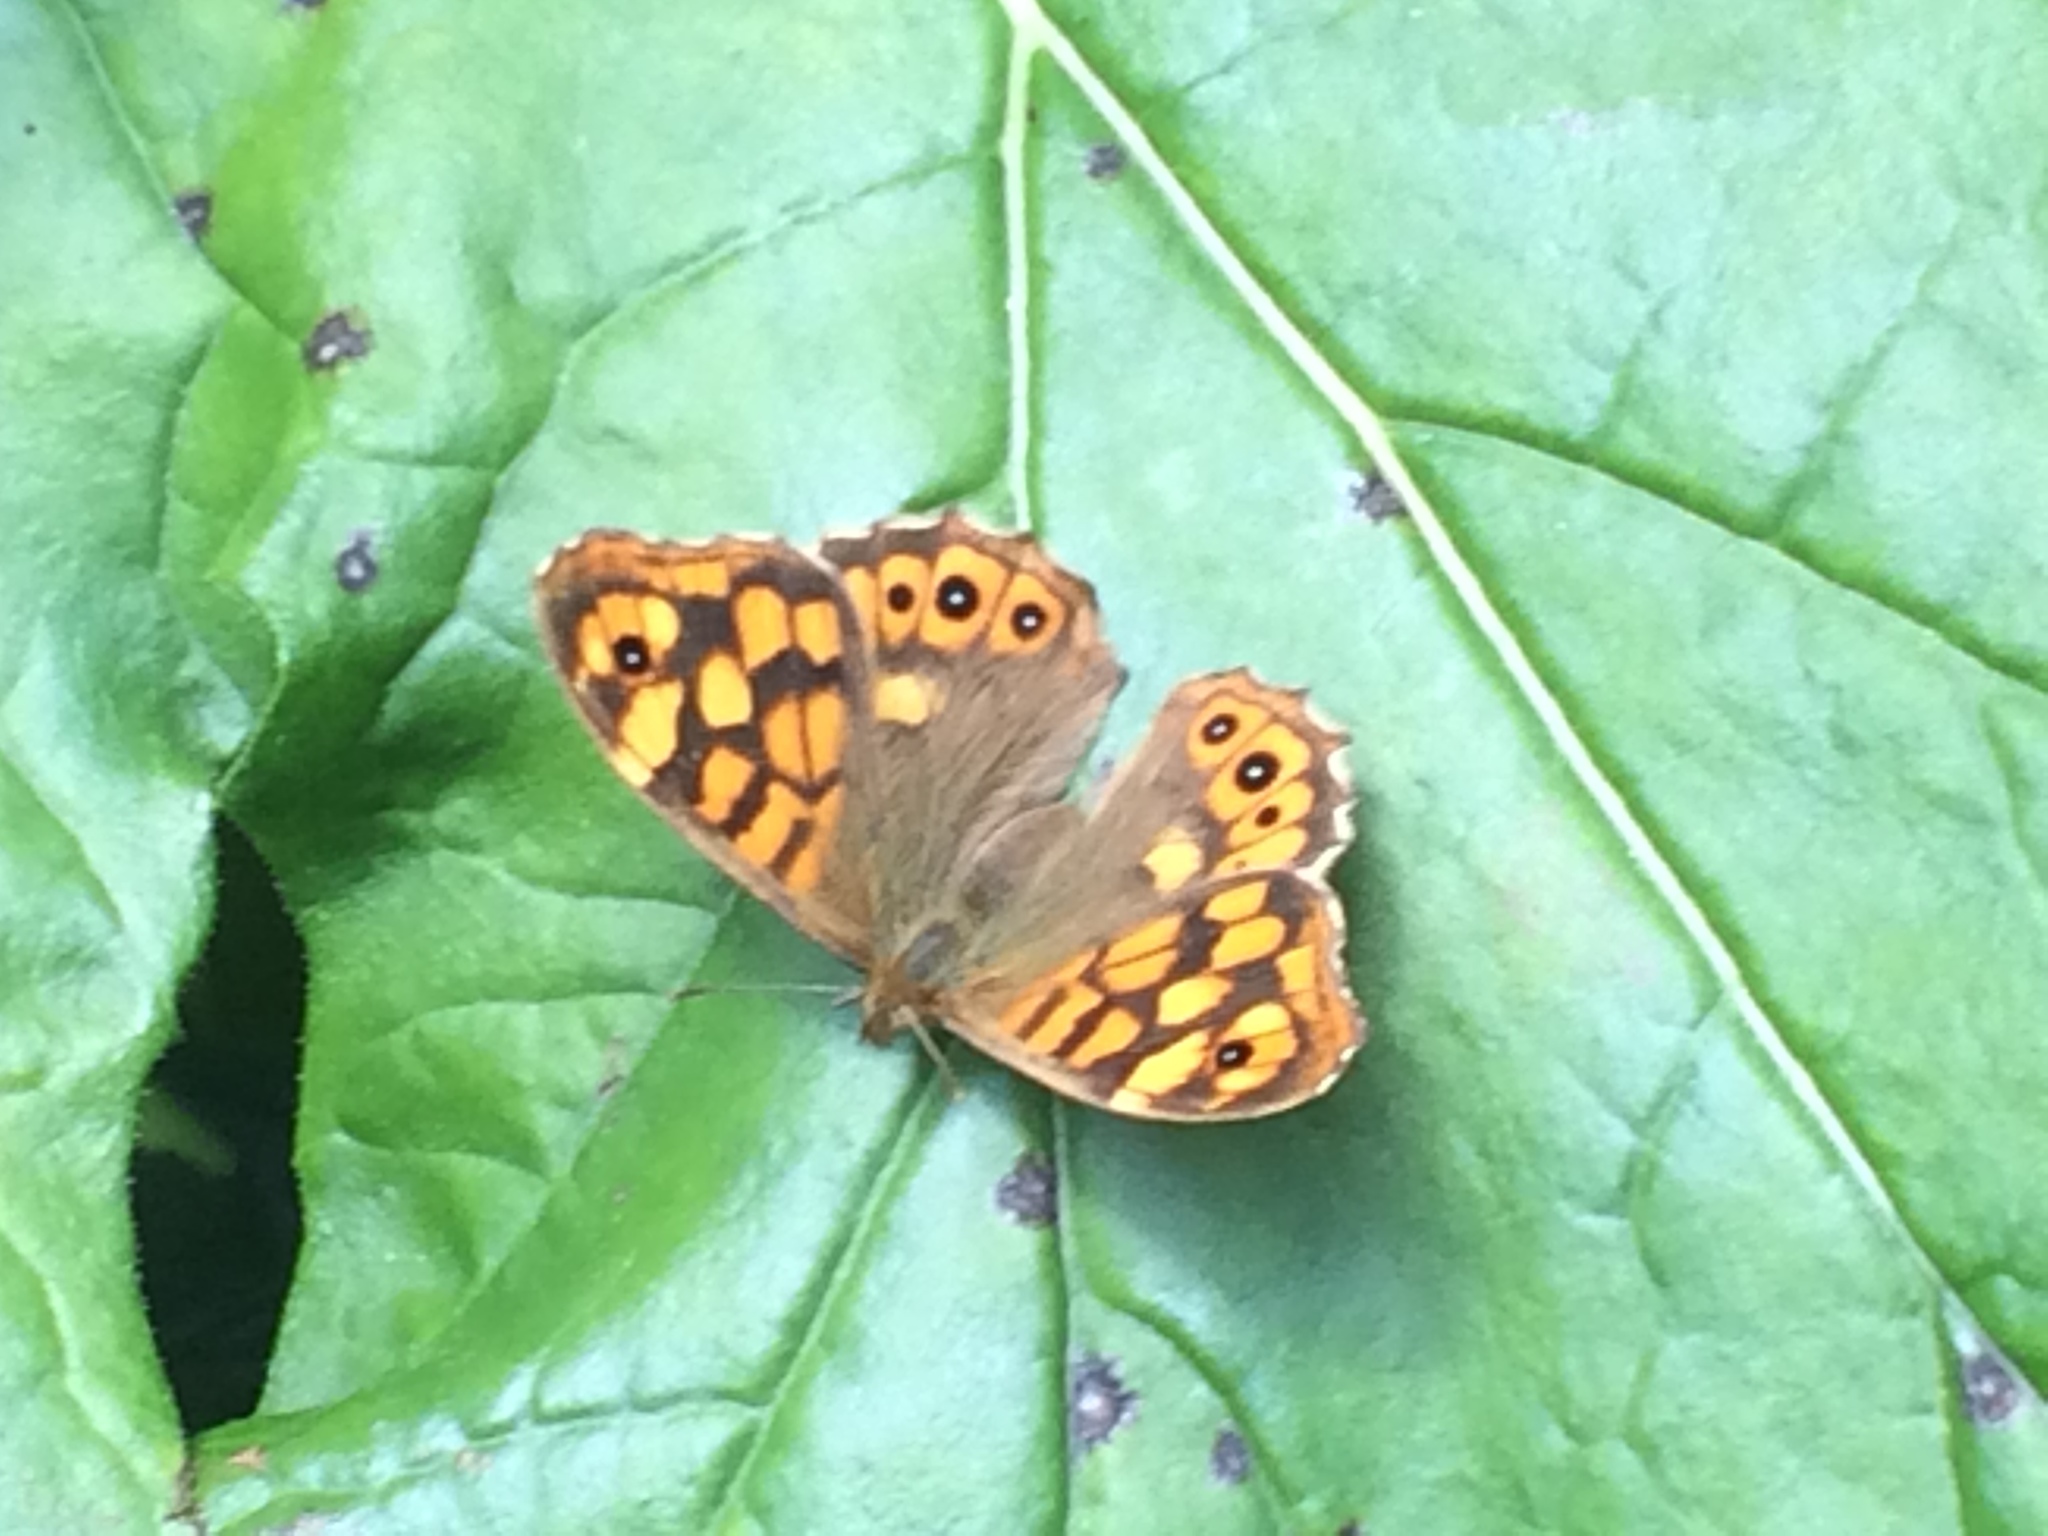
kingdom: Animalia
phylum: Arthropoda
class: Insecta
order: Lepidoptera
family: Nymphalidae
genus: Pararge
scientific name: Pararge aegeria
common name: Speckled wood
